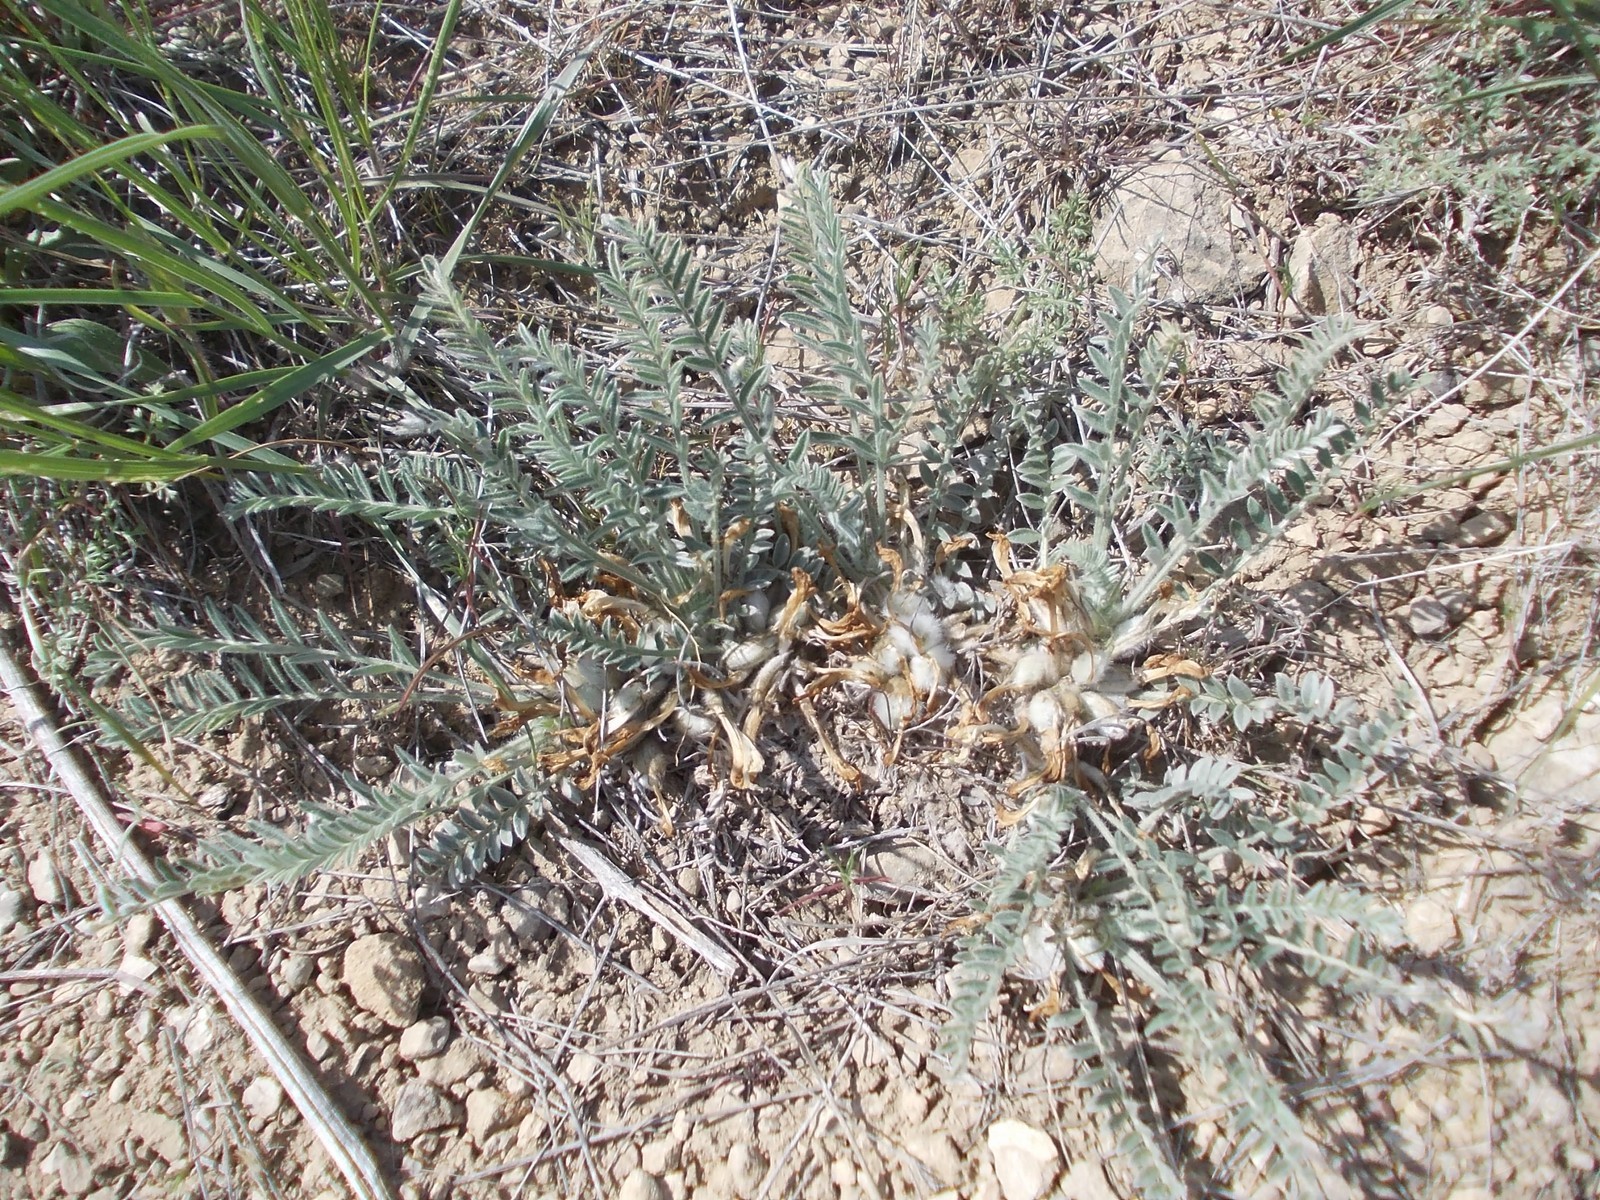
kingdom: Plantae
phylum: Tracheophyta
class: Magnoliopsida
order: Fabales
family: Fabaceae
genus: Astragalus
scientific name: Astragalus testiculatus
